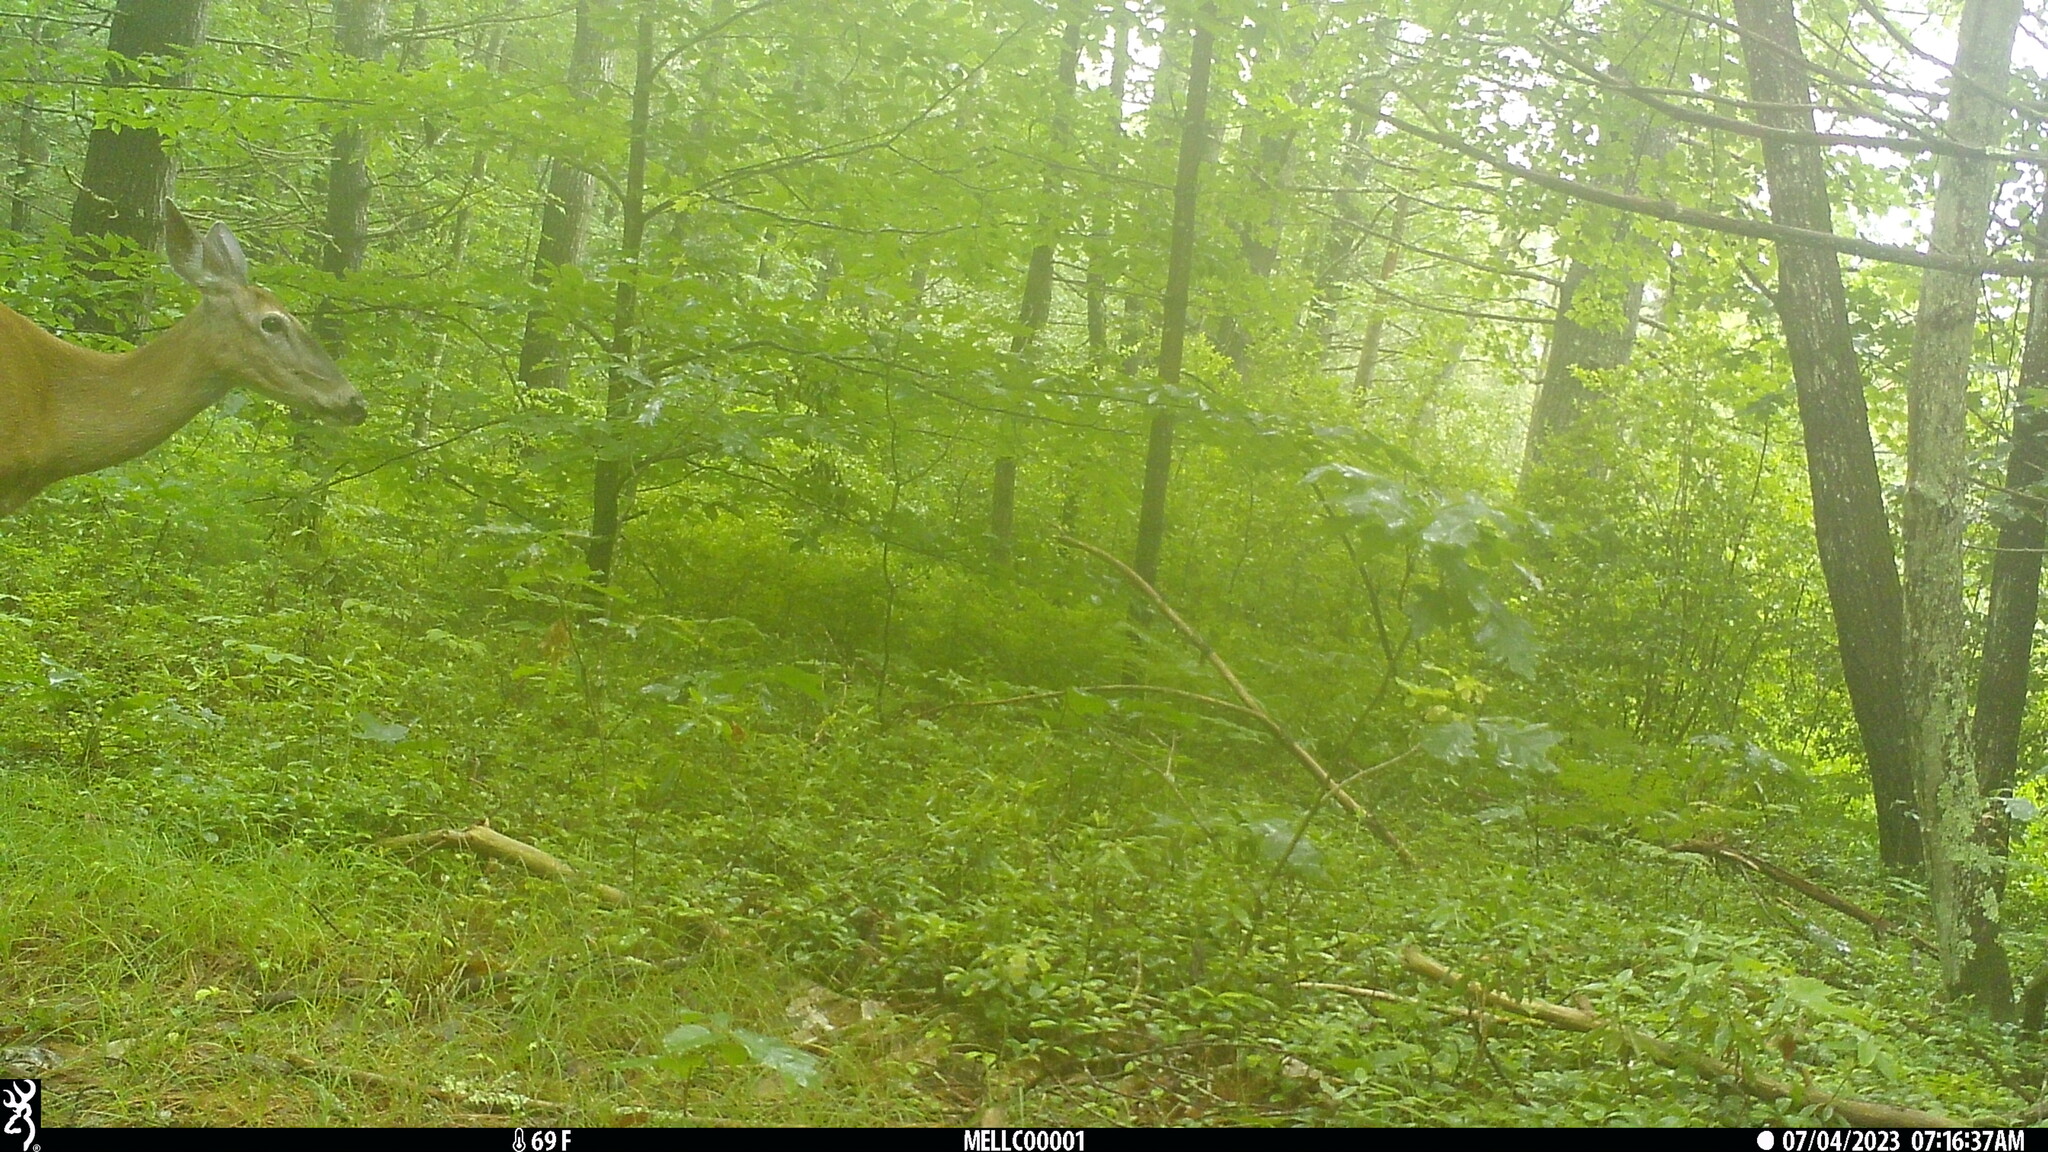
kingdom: Animalia
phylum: Chordata
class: Mammalia
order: Artiodactyla
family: Cervidae
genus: Odocoileus
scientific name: Odocoileus virginianus
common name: White-tailed deer
